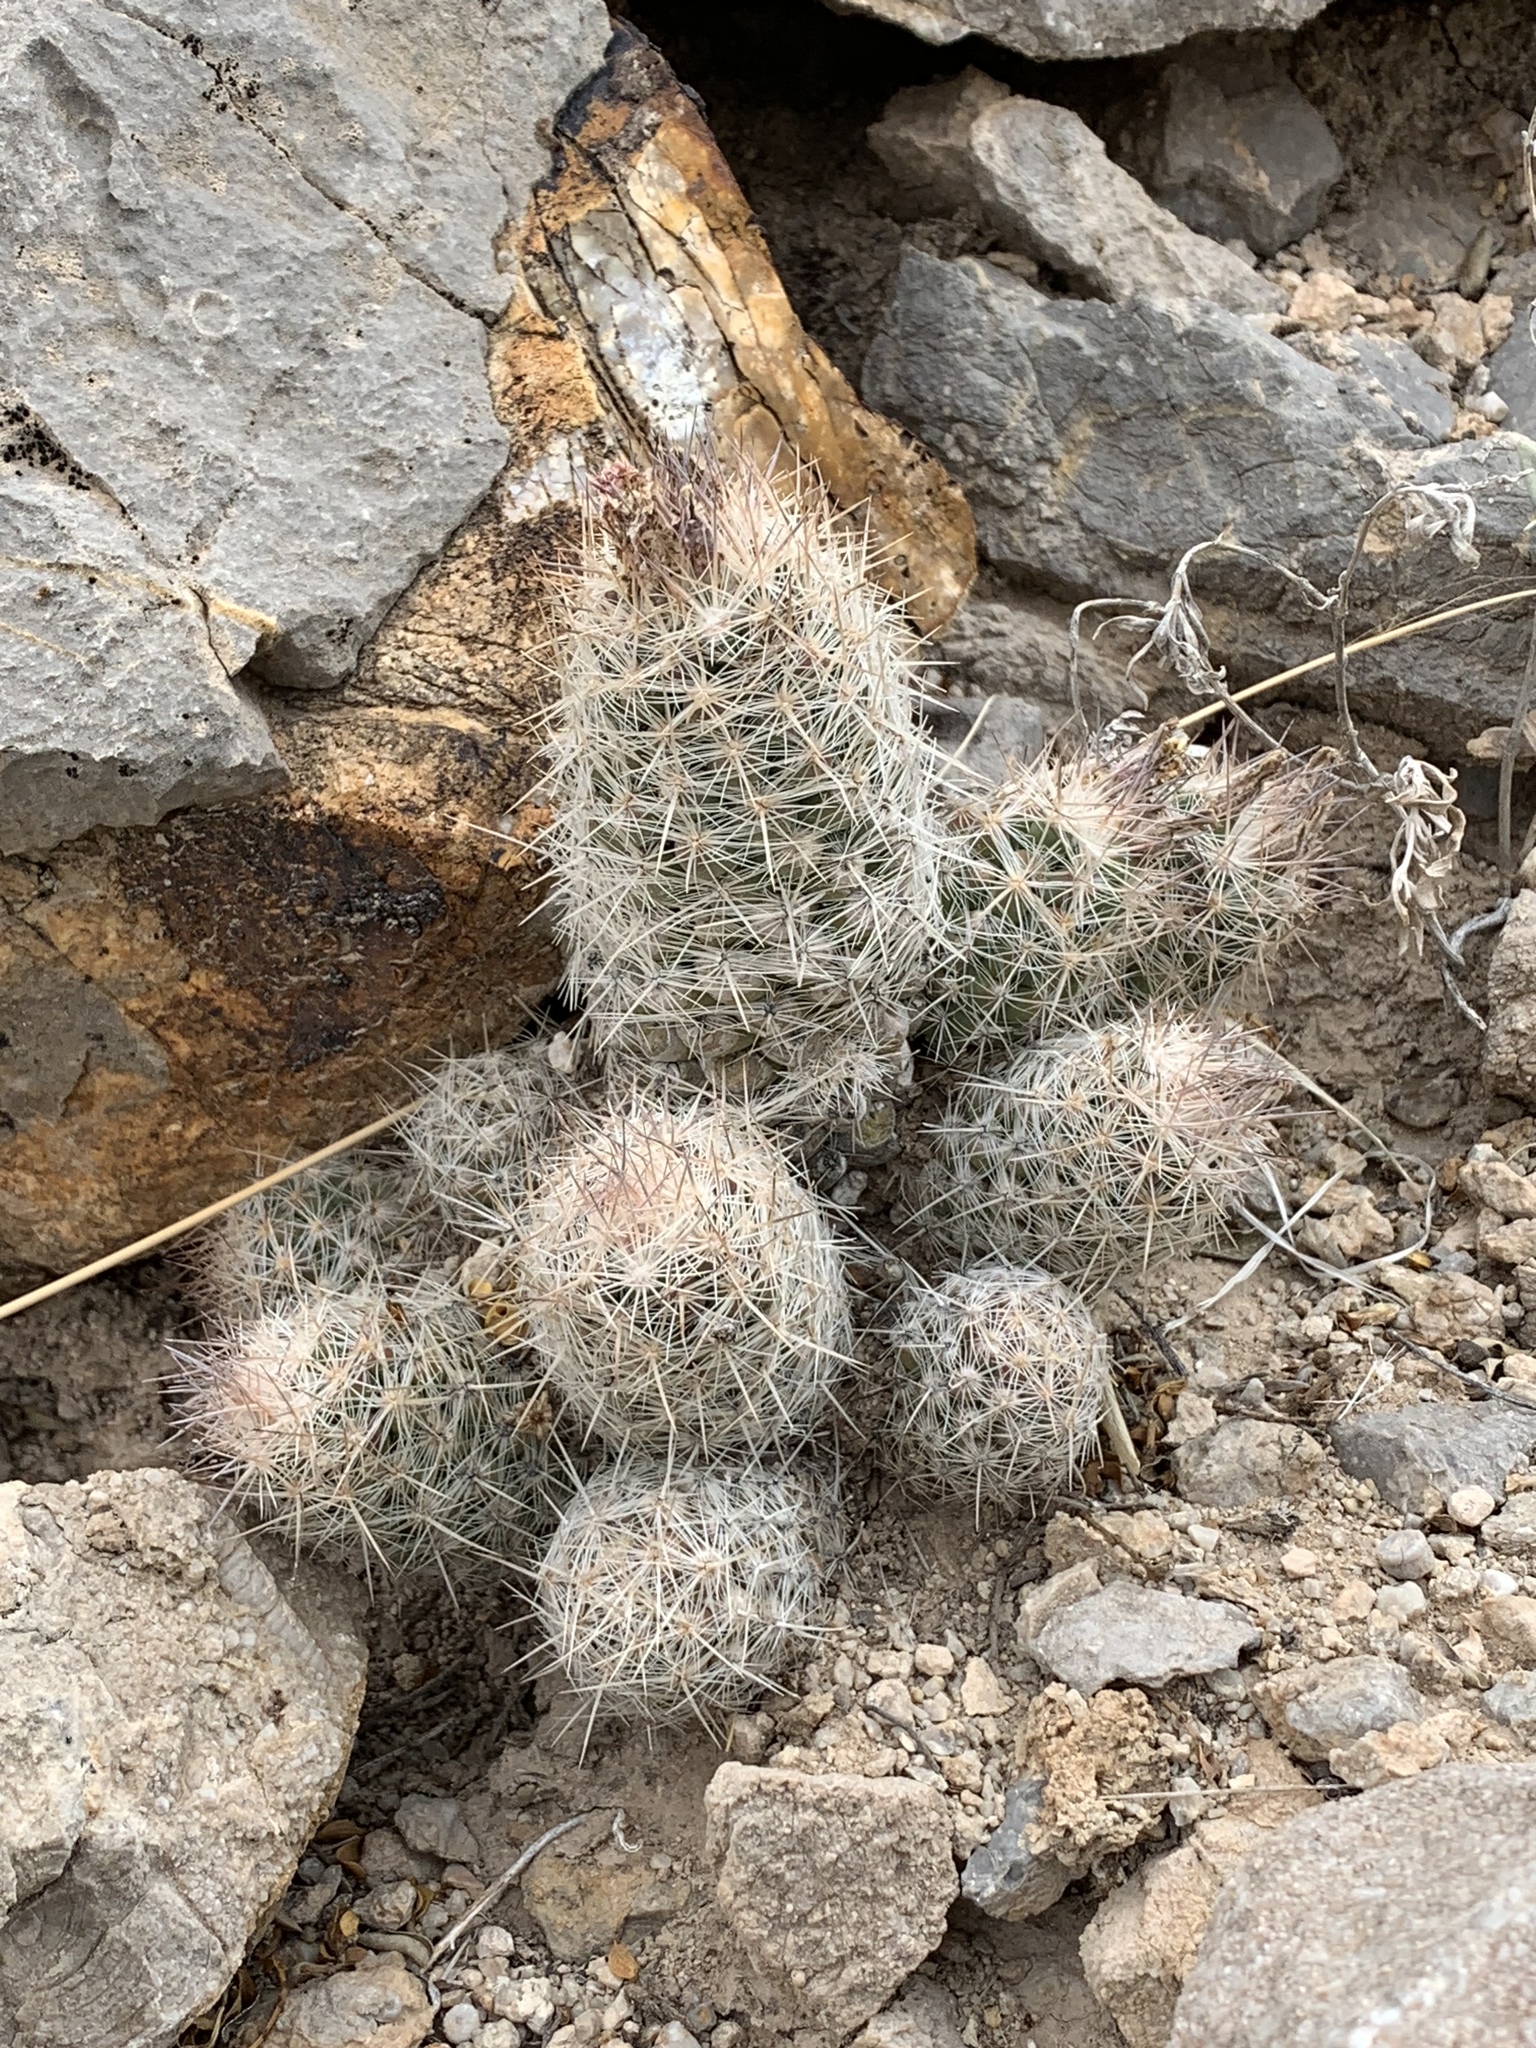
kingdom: Plantae
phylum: Tracheophyta
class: Magnoliopsida
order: Caryophyllales
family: Cactaceae
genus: Pelecyphora
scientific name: Pelecyphora tuberculosa
